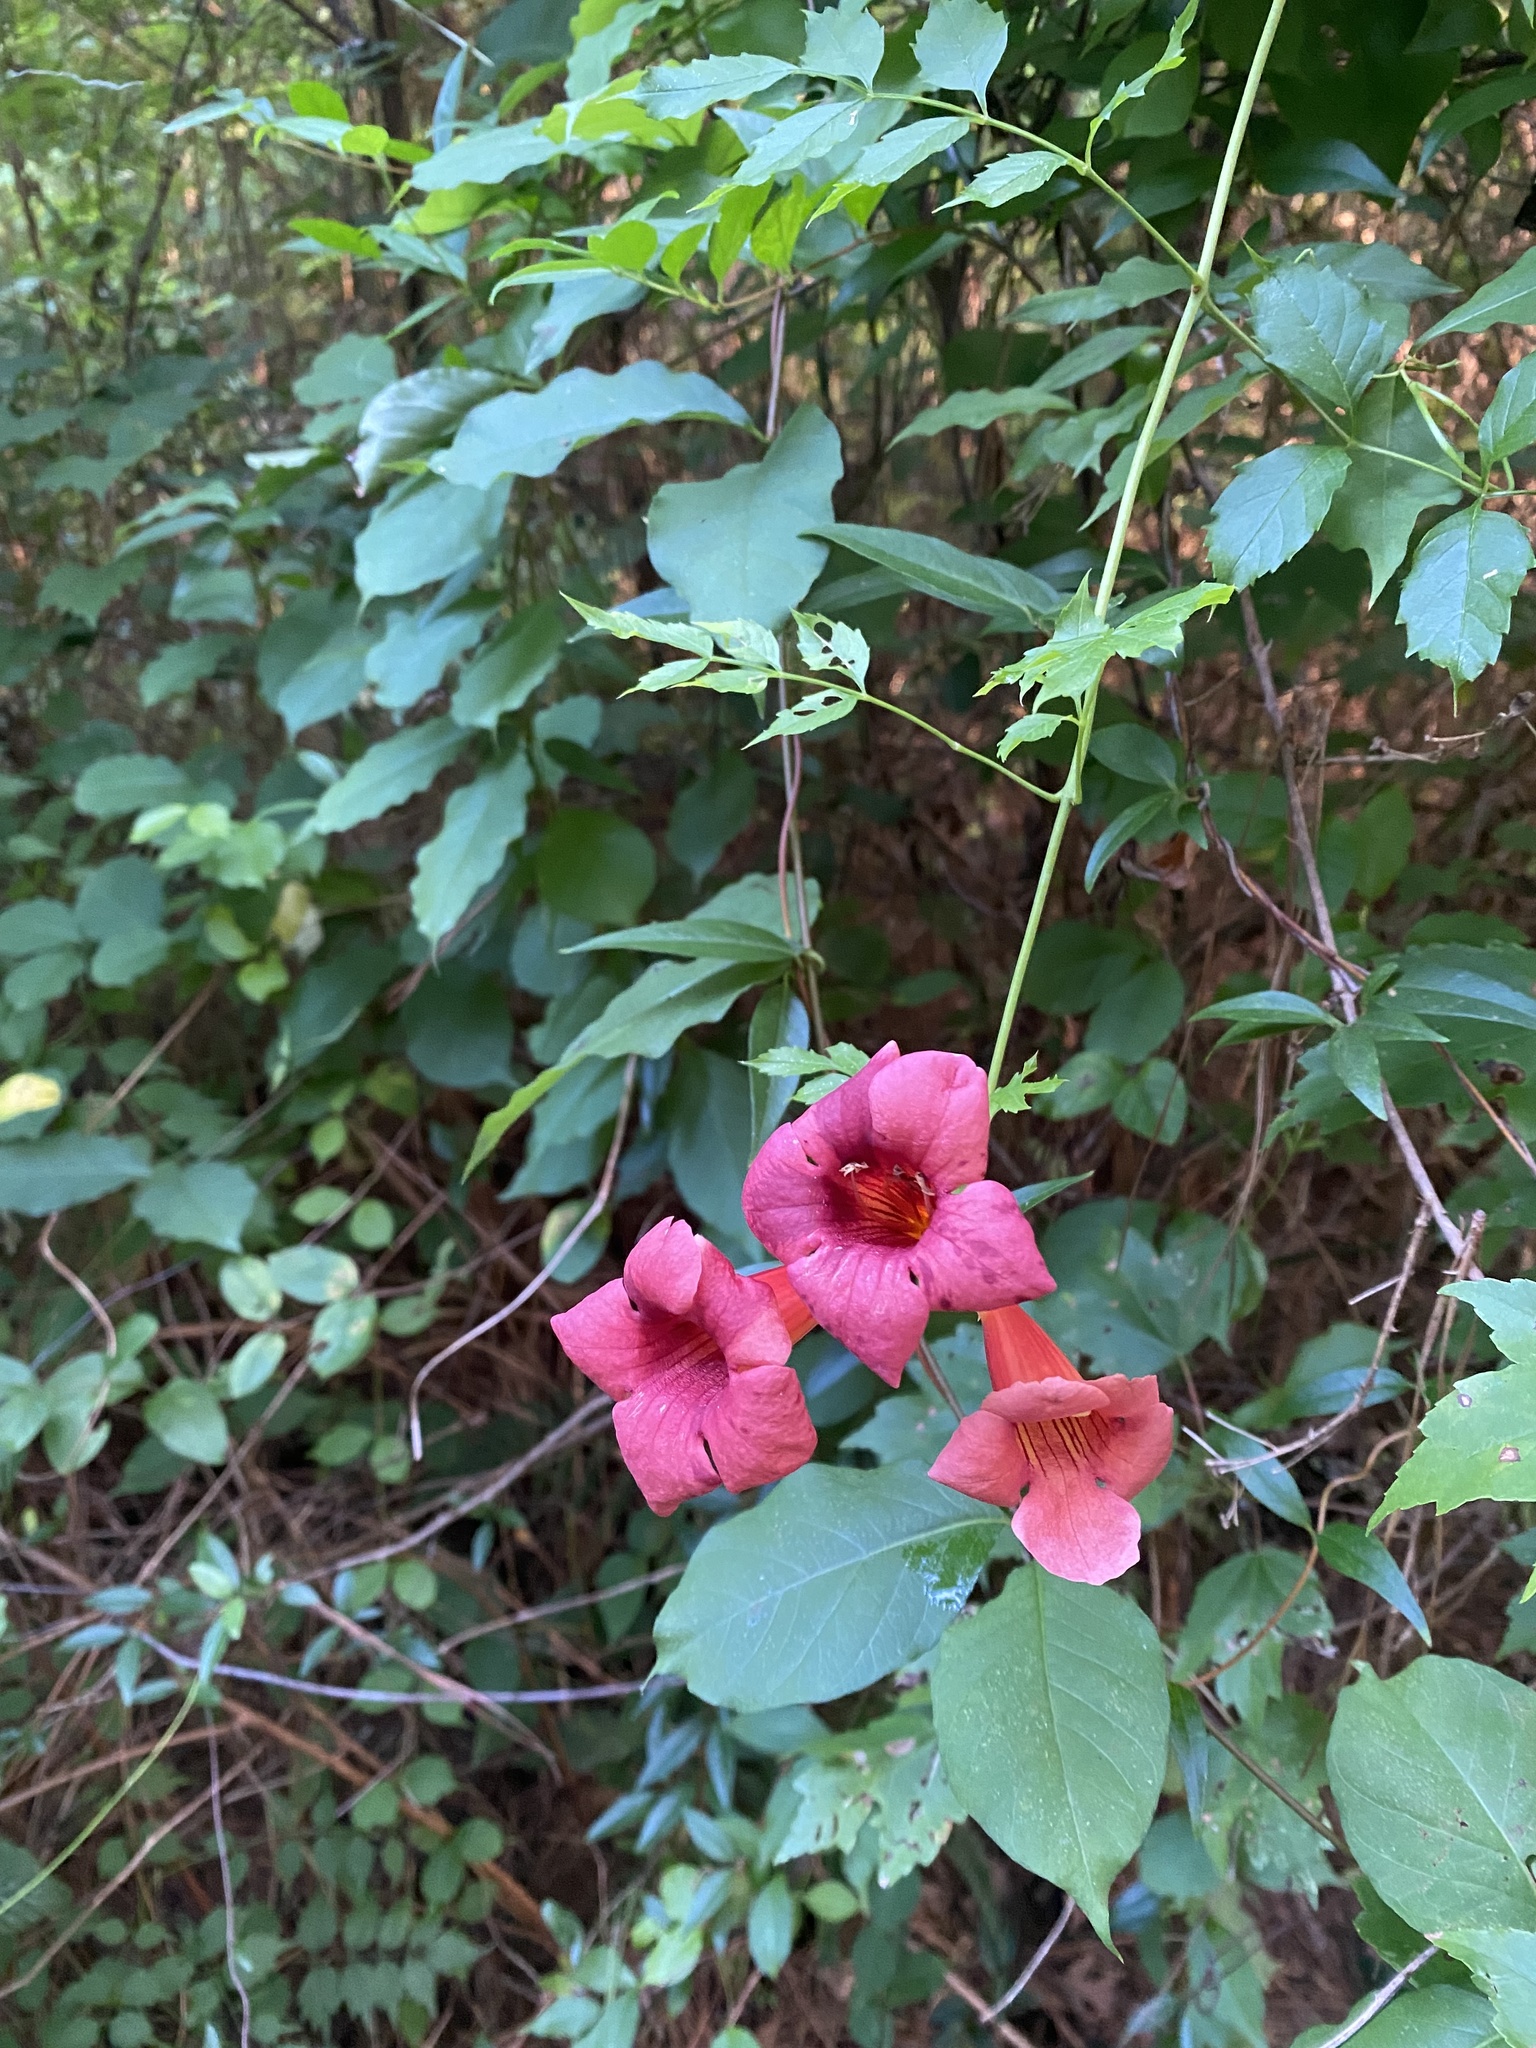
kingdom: Plantae
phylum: Tracheophyta
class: Magnoliopsida
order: Lamiales
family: Bignoniaceae
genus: Campsis
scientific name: Campsis radicans
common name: Trumpet-creeper
